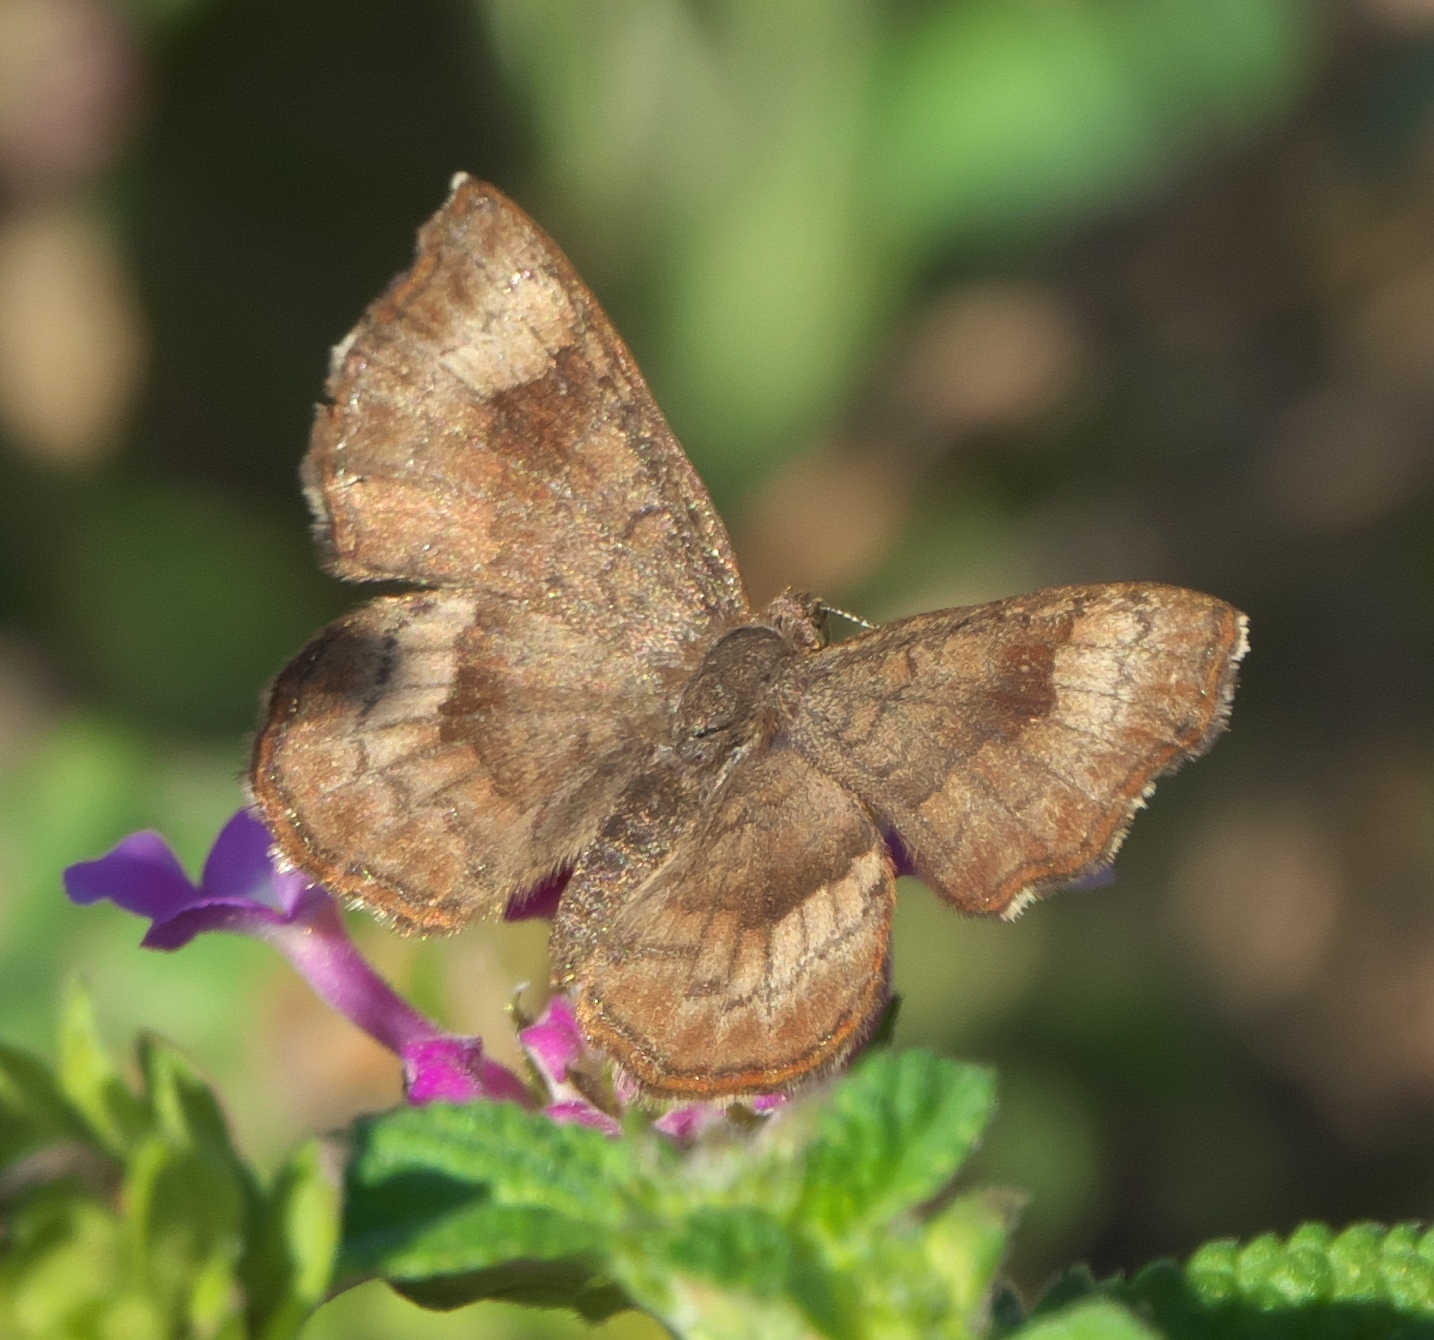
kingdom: Animalia
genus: Calephelis
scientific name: Calephelis nemesis
